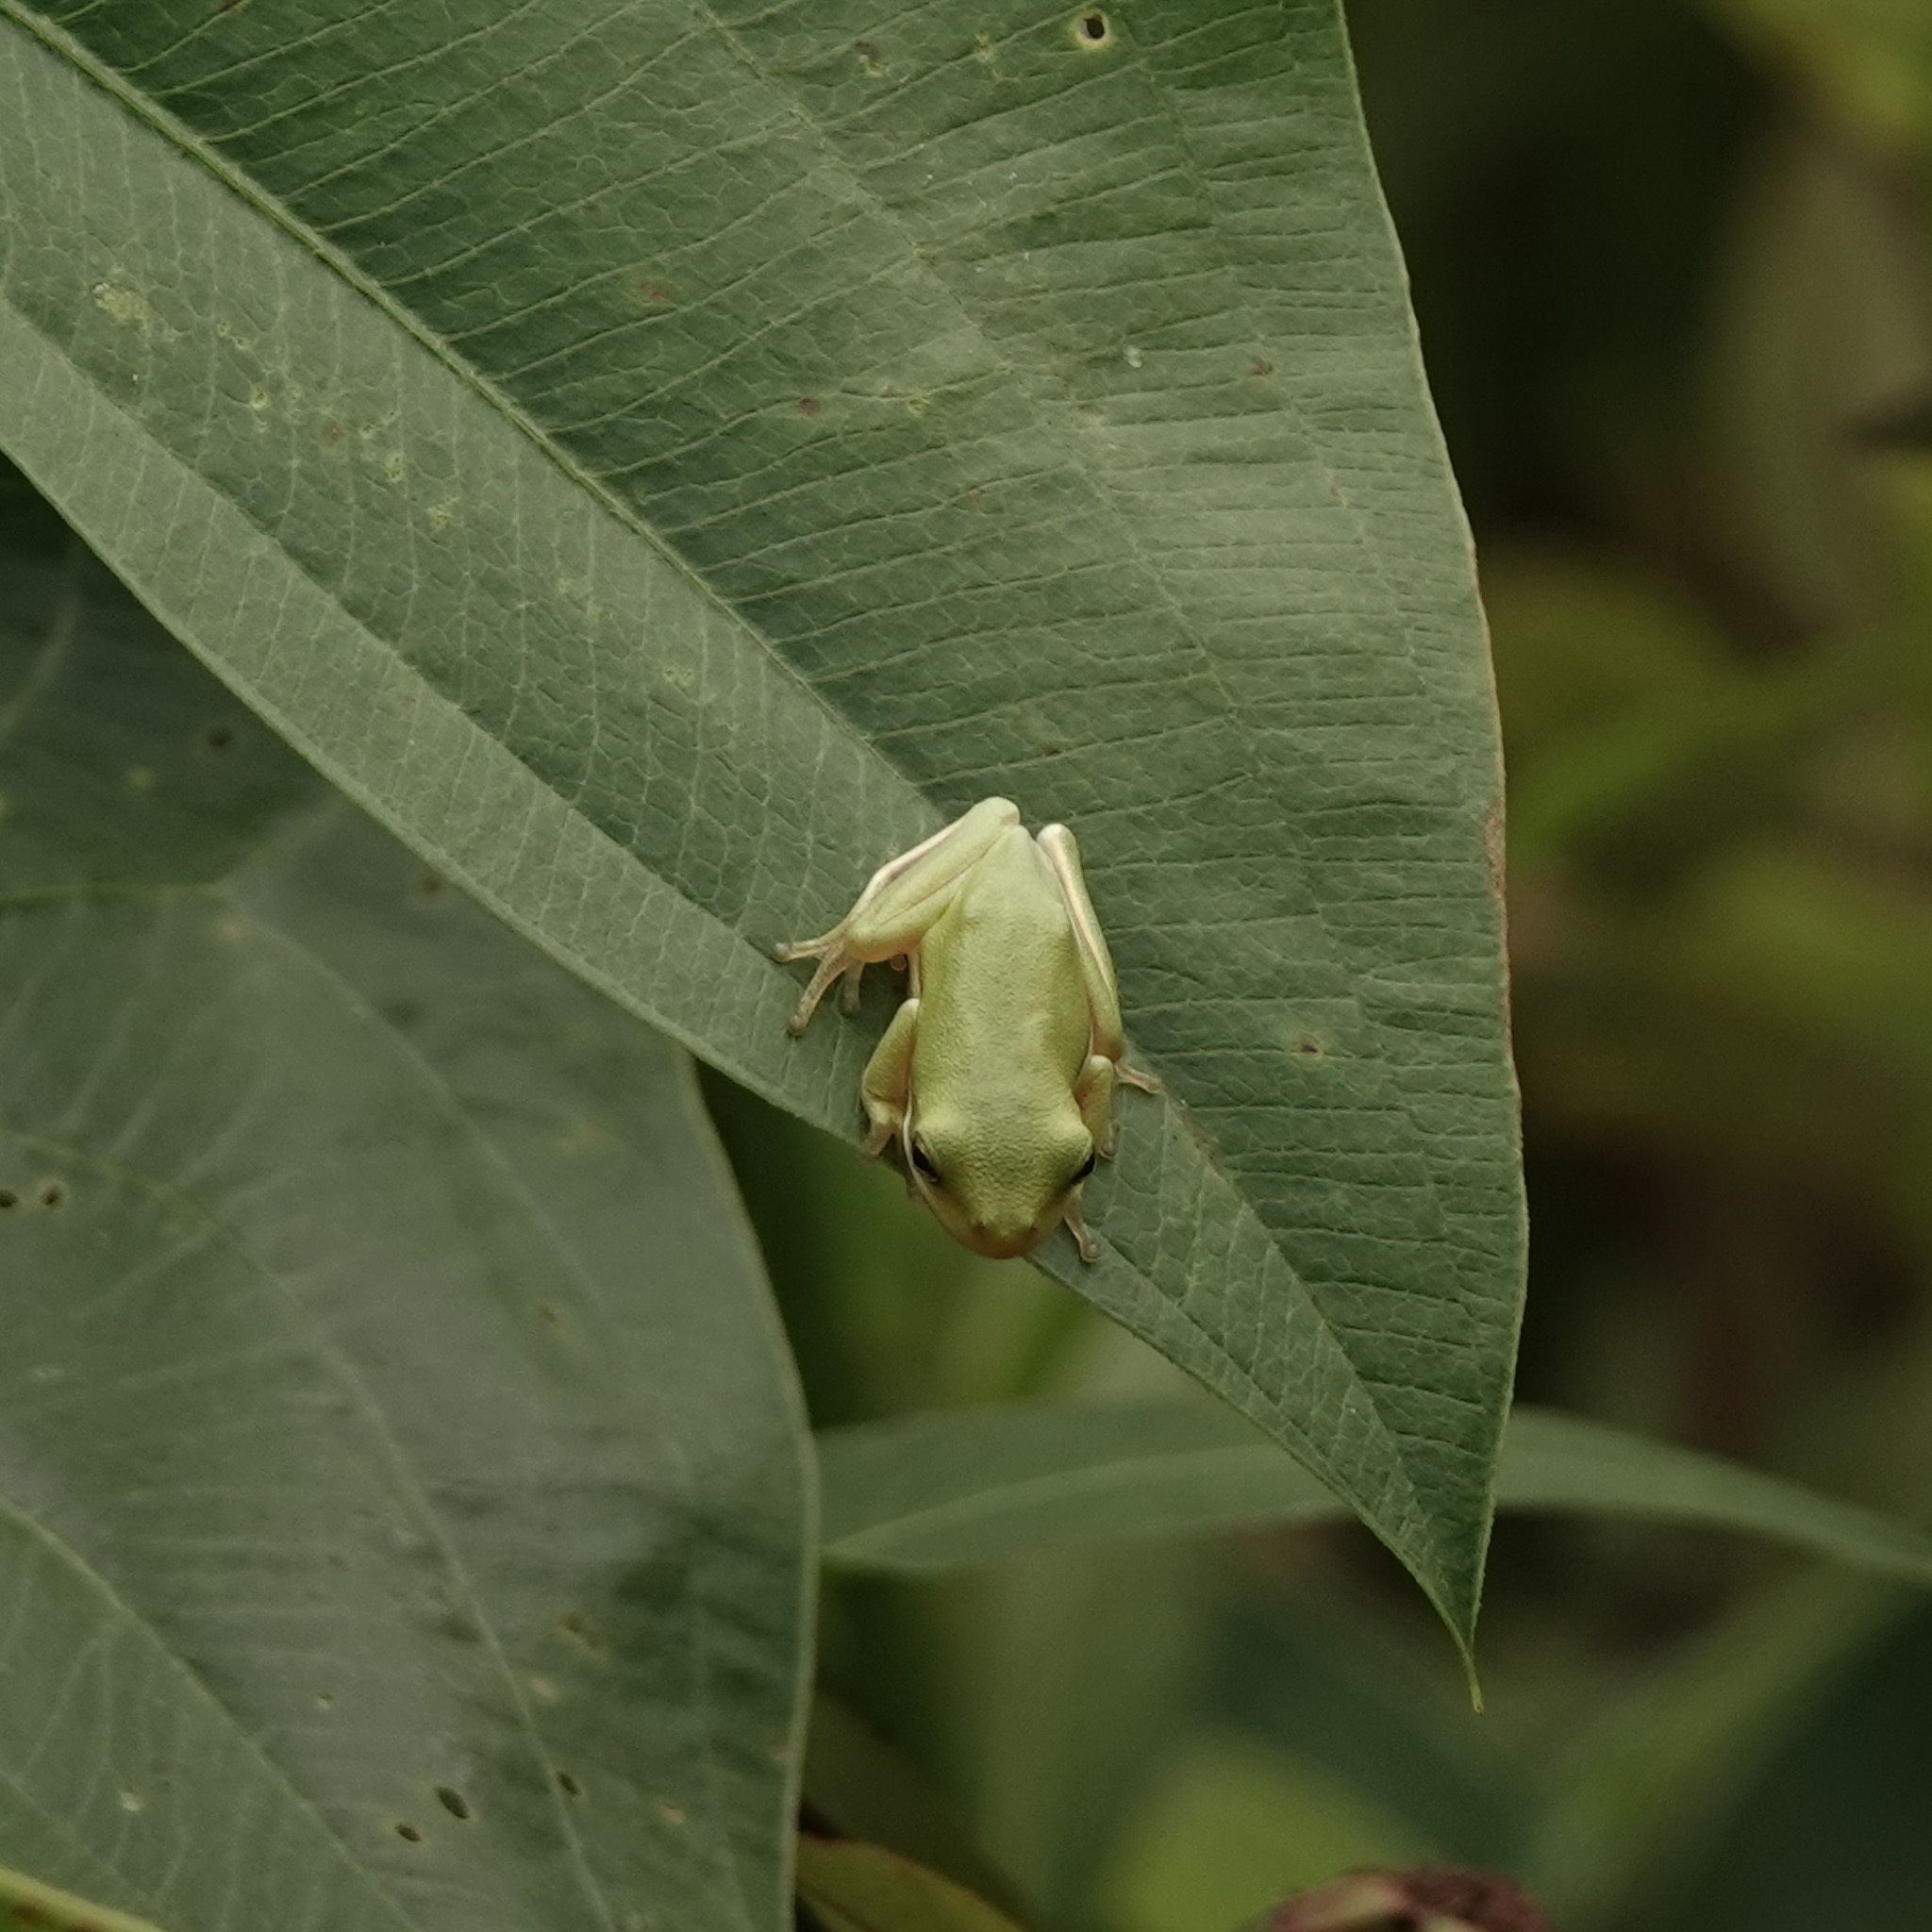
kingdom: Animalia
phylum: Chordata
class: Amphibia
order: Anura
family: Hylidae
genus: Dryophytes
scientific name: Dryophytes cinereus
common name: Green treefrog
